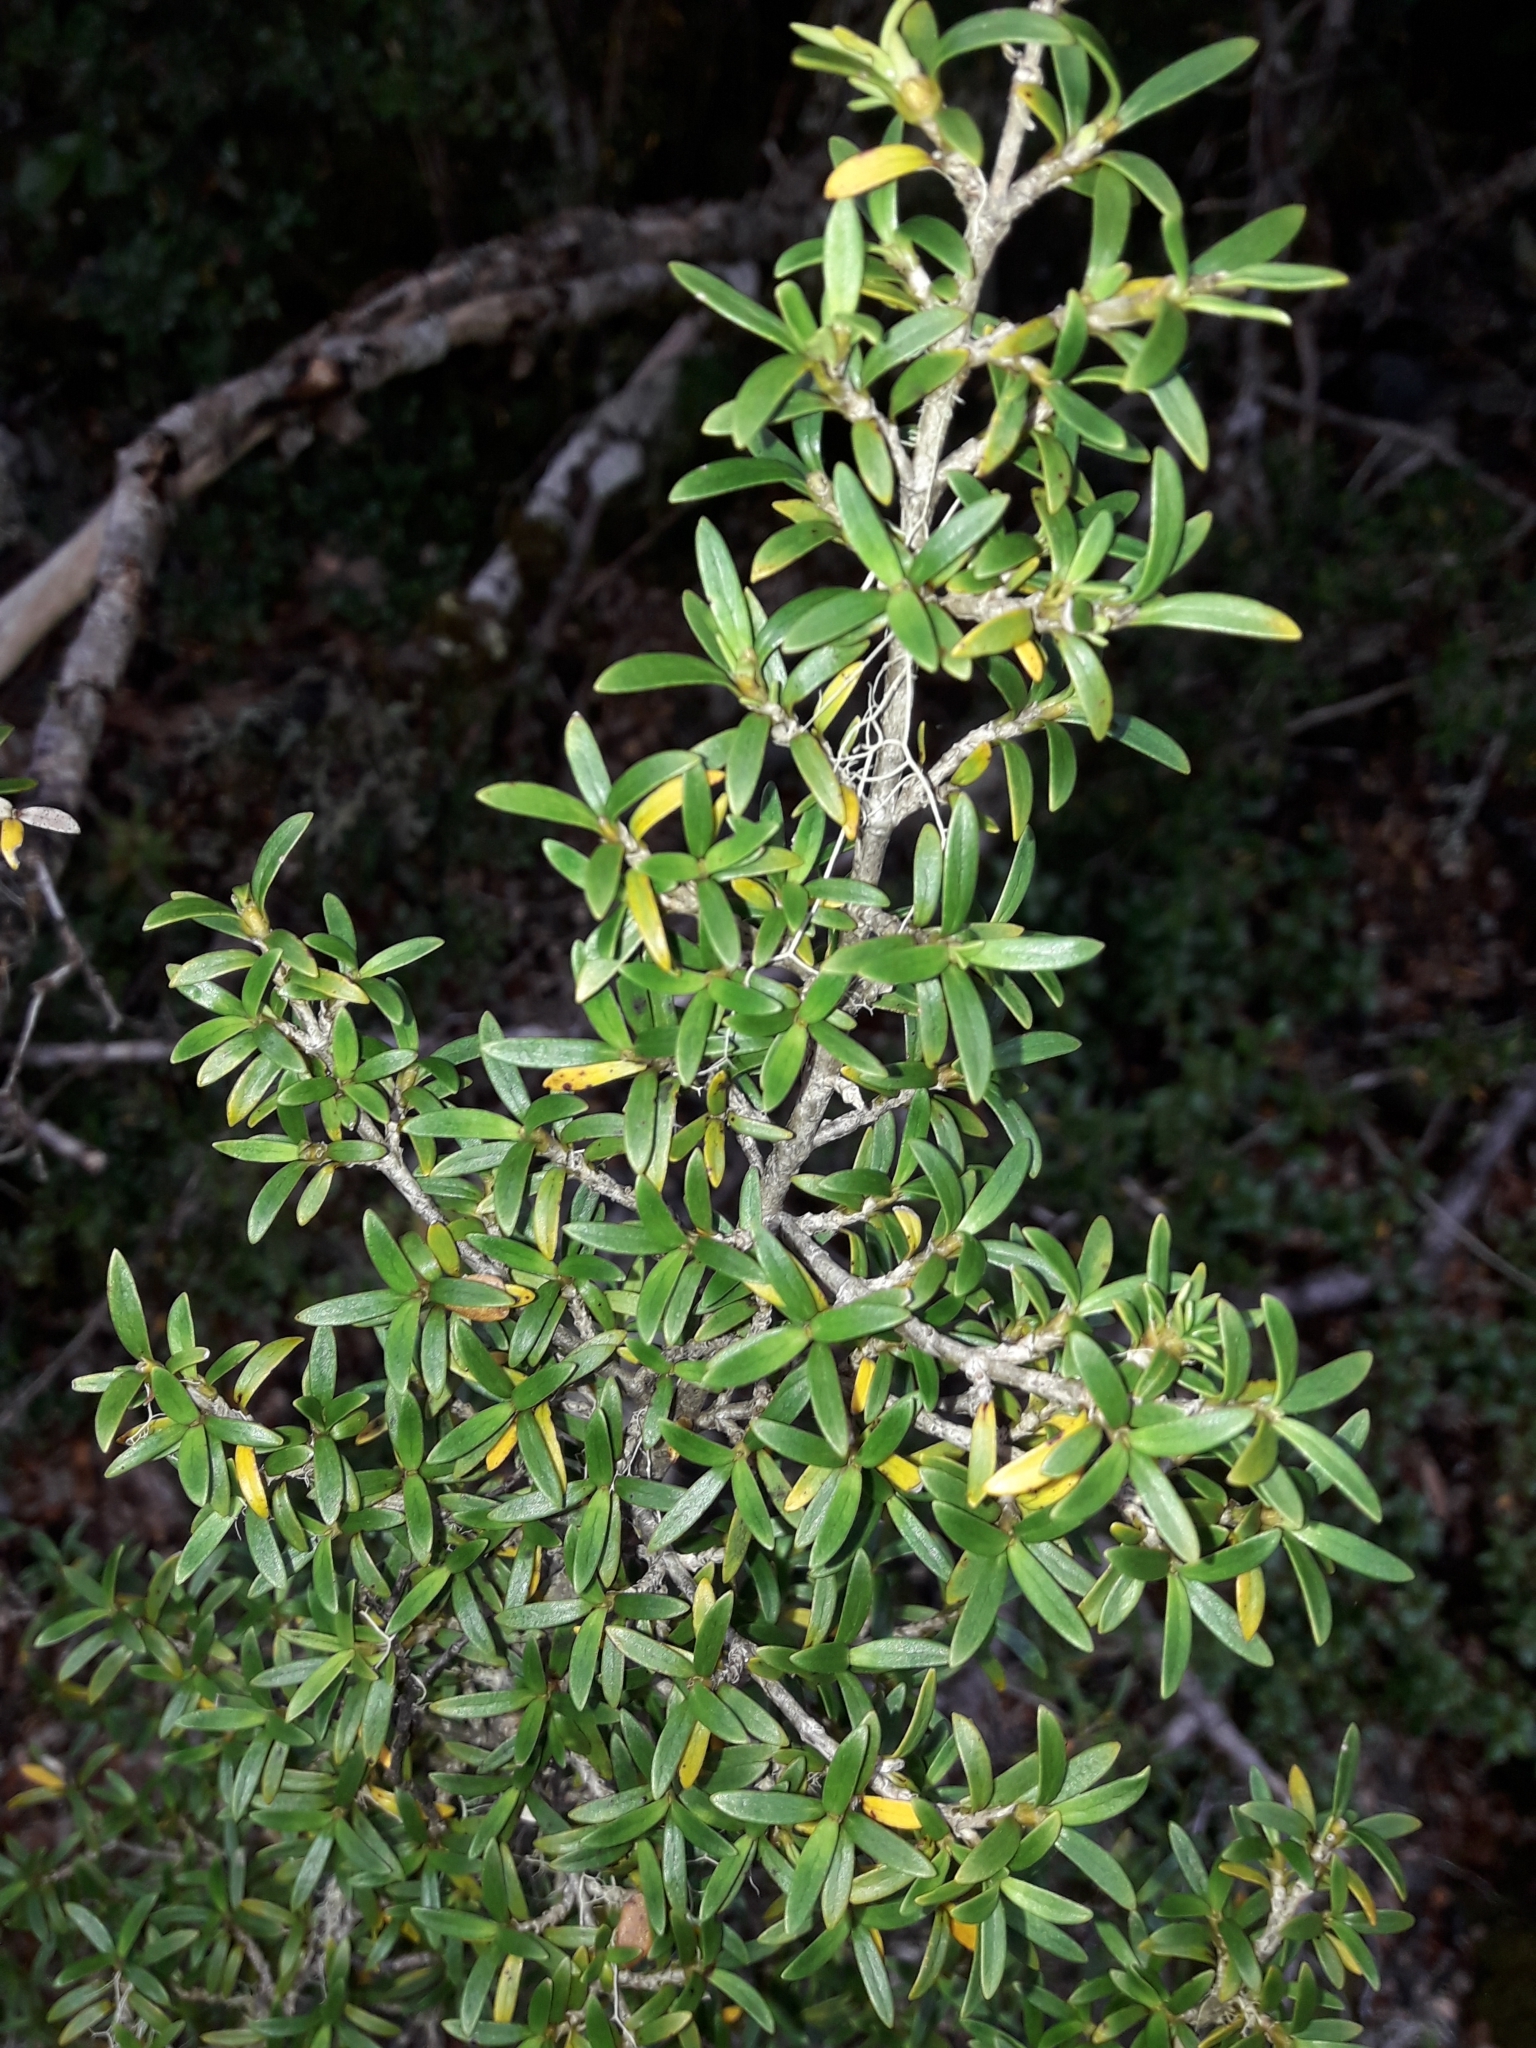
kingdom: Plantae
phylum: Tracheophyta
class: Magnoliopsida
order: Gentianales
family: Rubiaceae
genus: Coprosma
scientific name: Coprosma pseudocuneata
